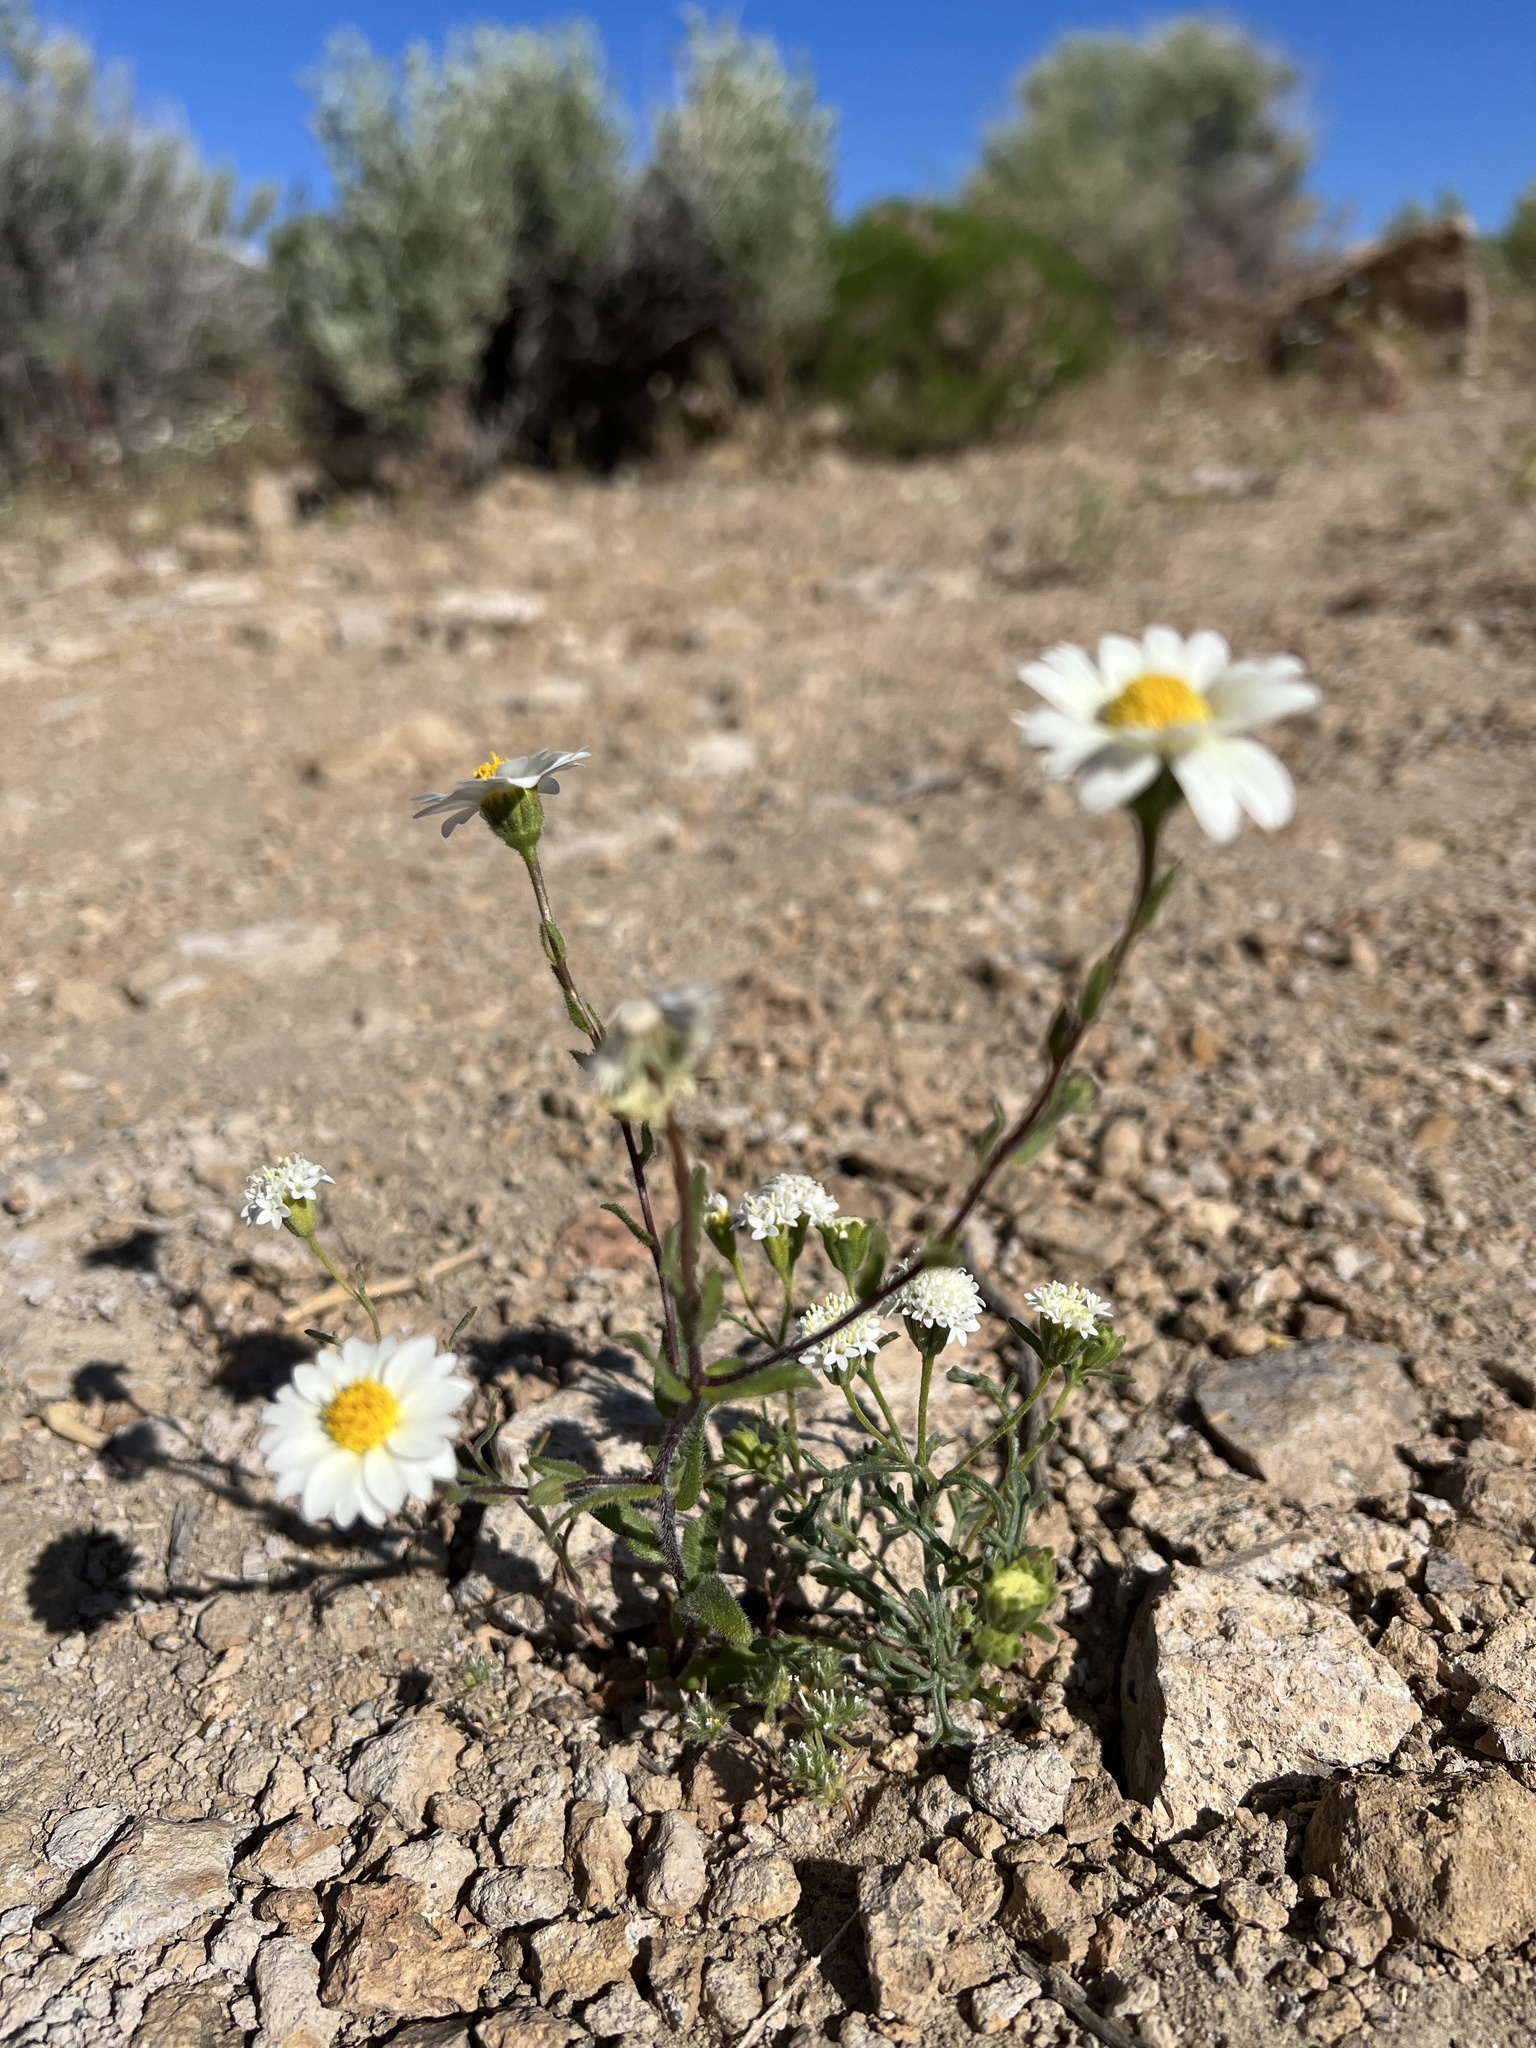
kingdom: Plantae
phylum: Tracheophyta
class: Magnoliopsida
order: Asterales
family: Asteraceae
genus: Layia
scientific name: Layia glandulosa
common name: White layia
